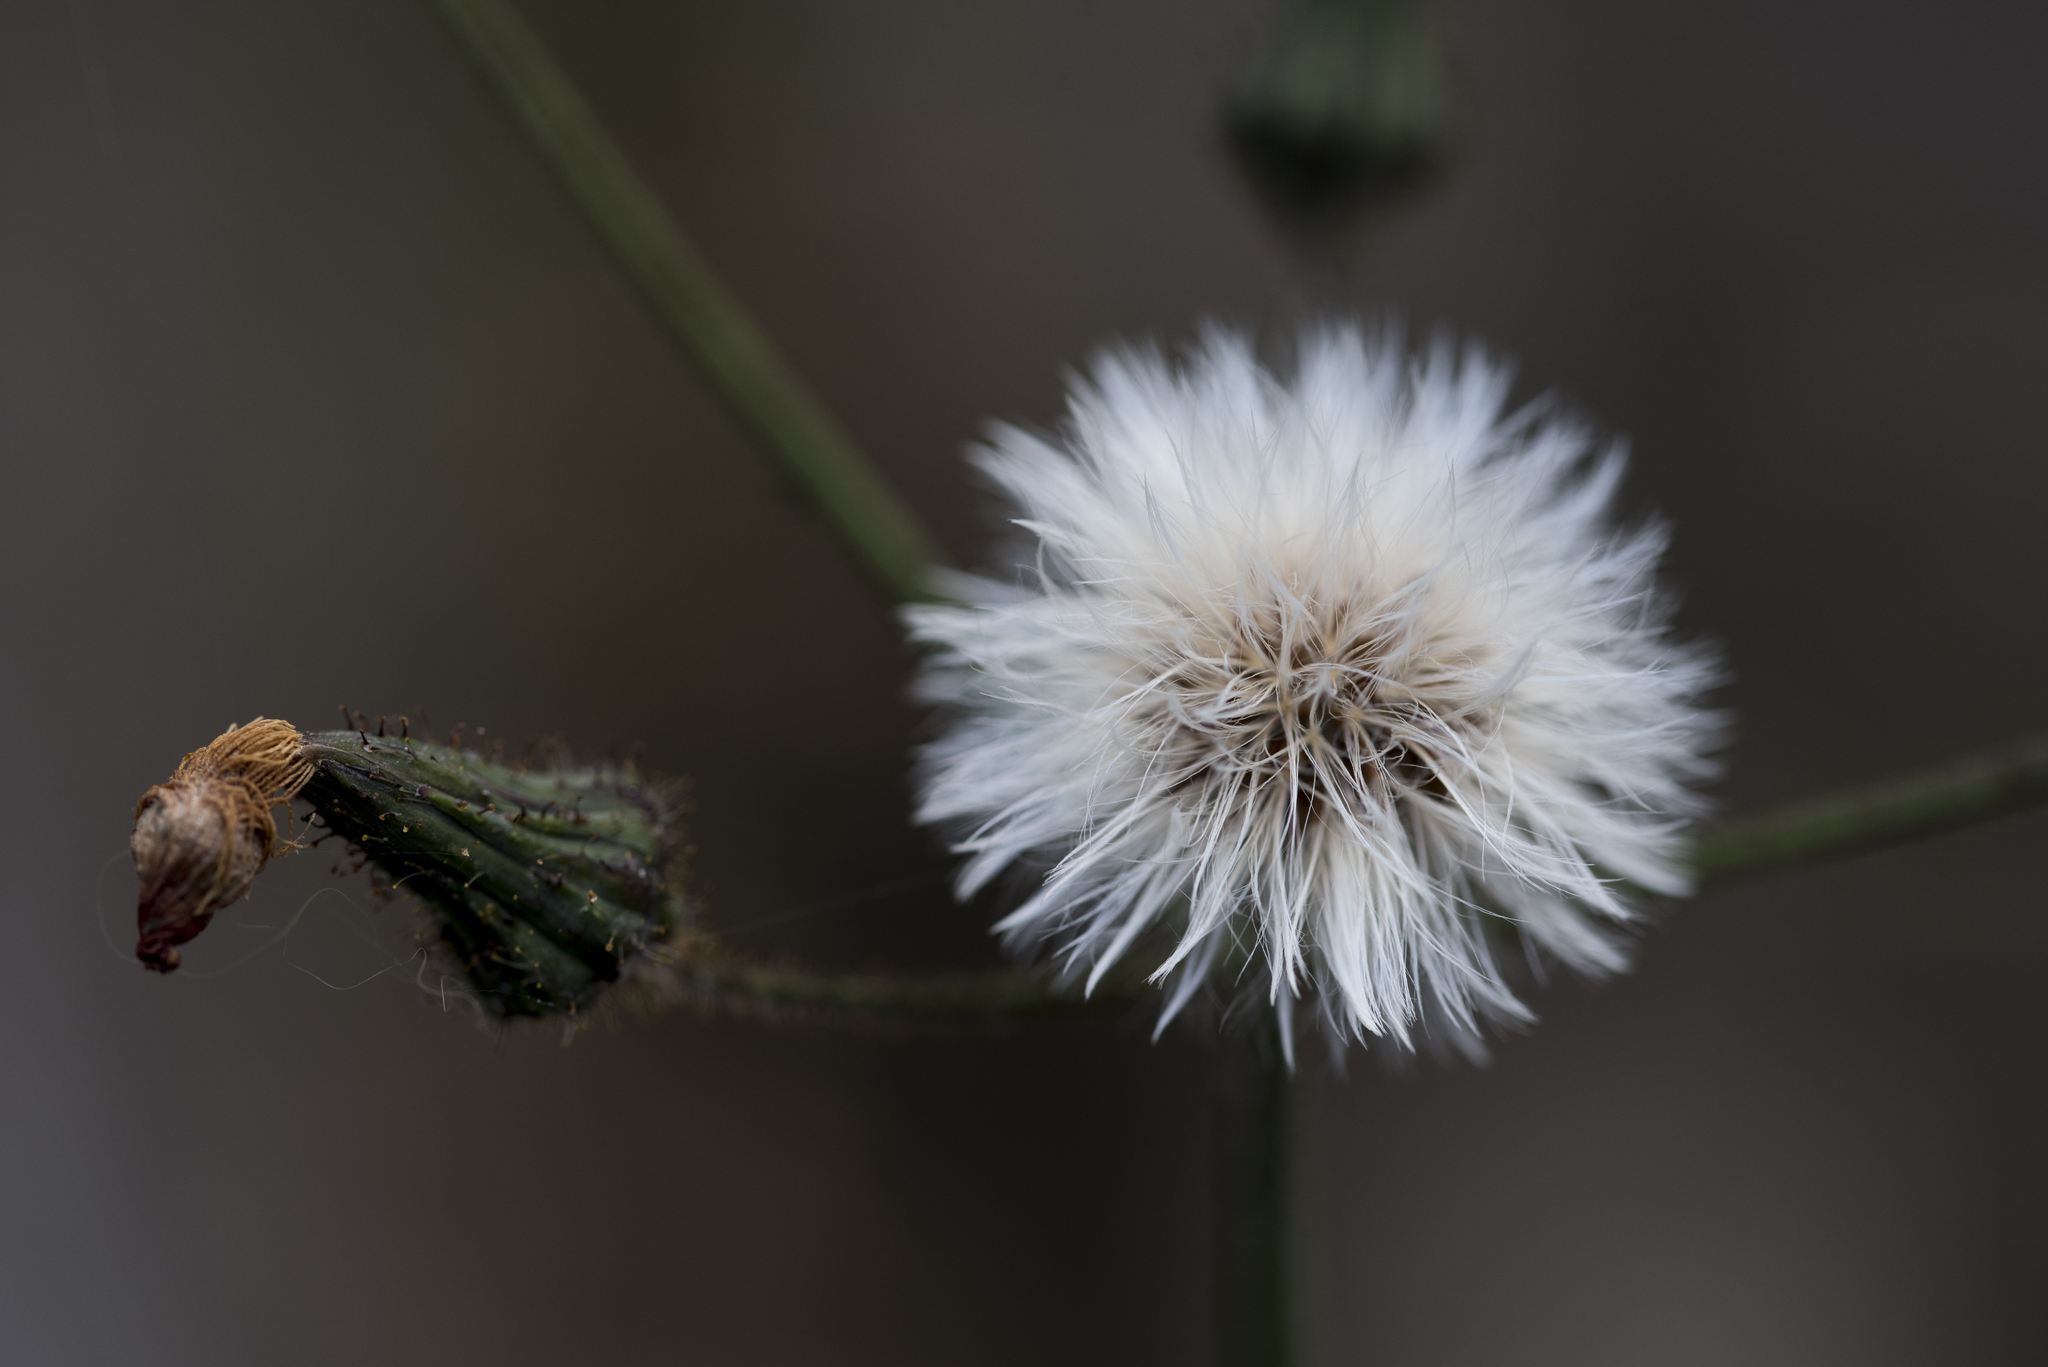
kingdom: Plantae
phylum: Tracheophyta
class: Magnoliopsida
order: Asterales
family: Asteraceae
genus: Sonchus
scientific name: Sonchus arvensis
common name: Perennial sow-thistle
